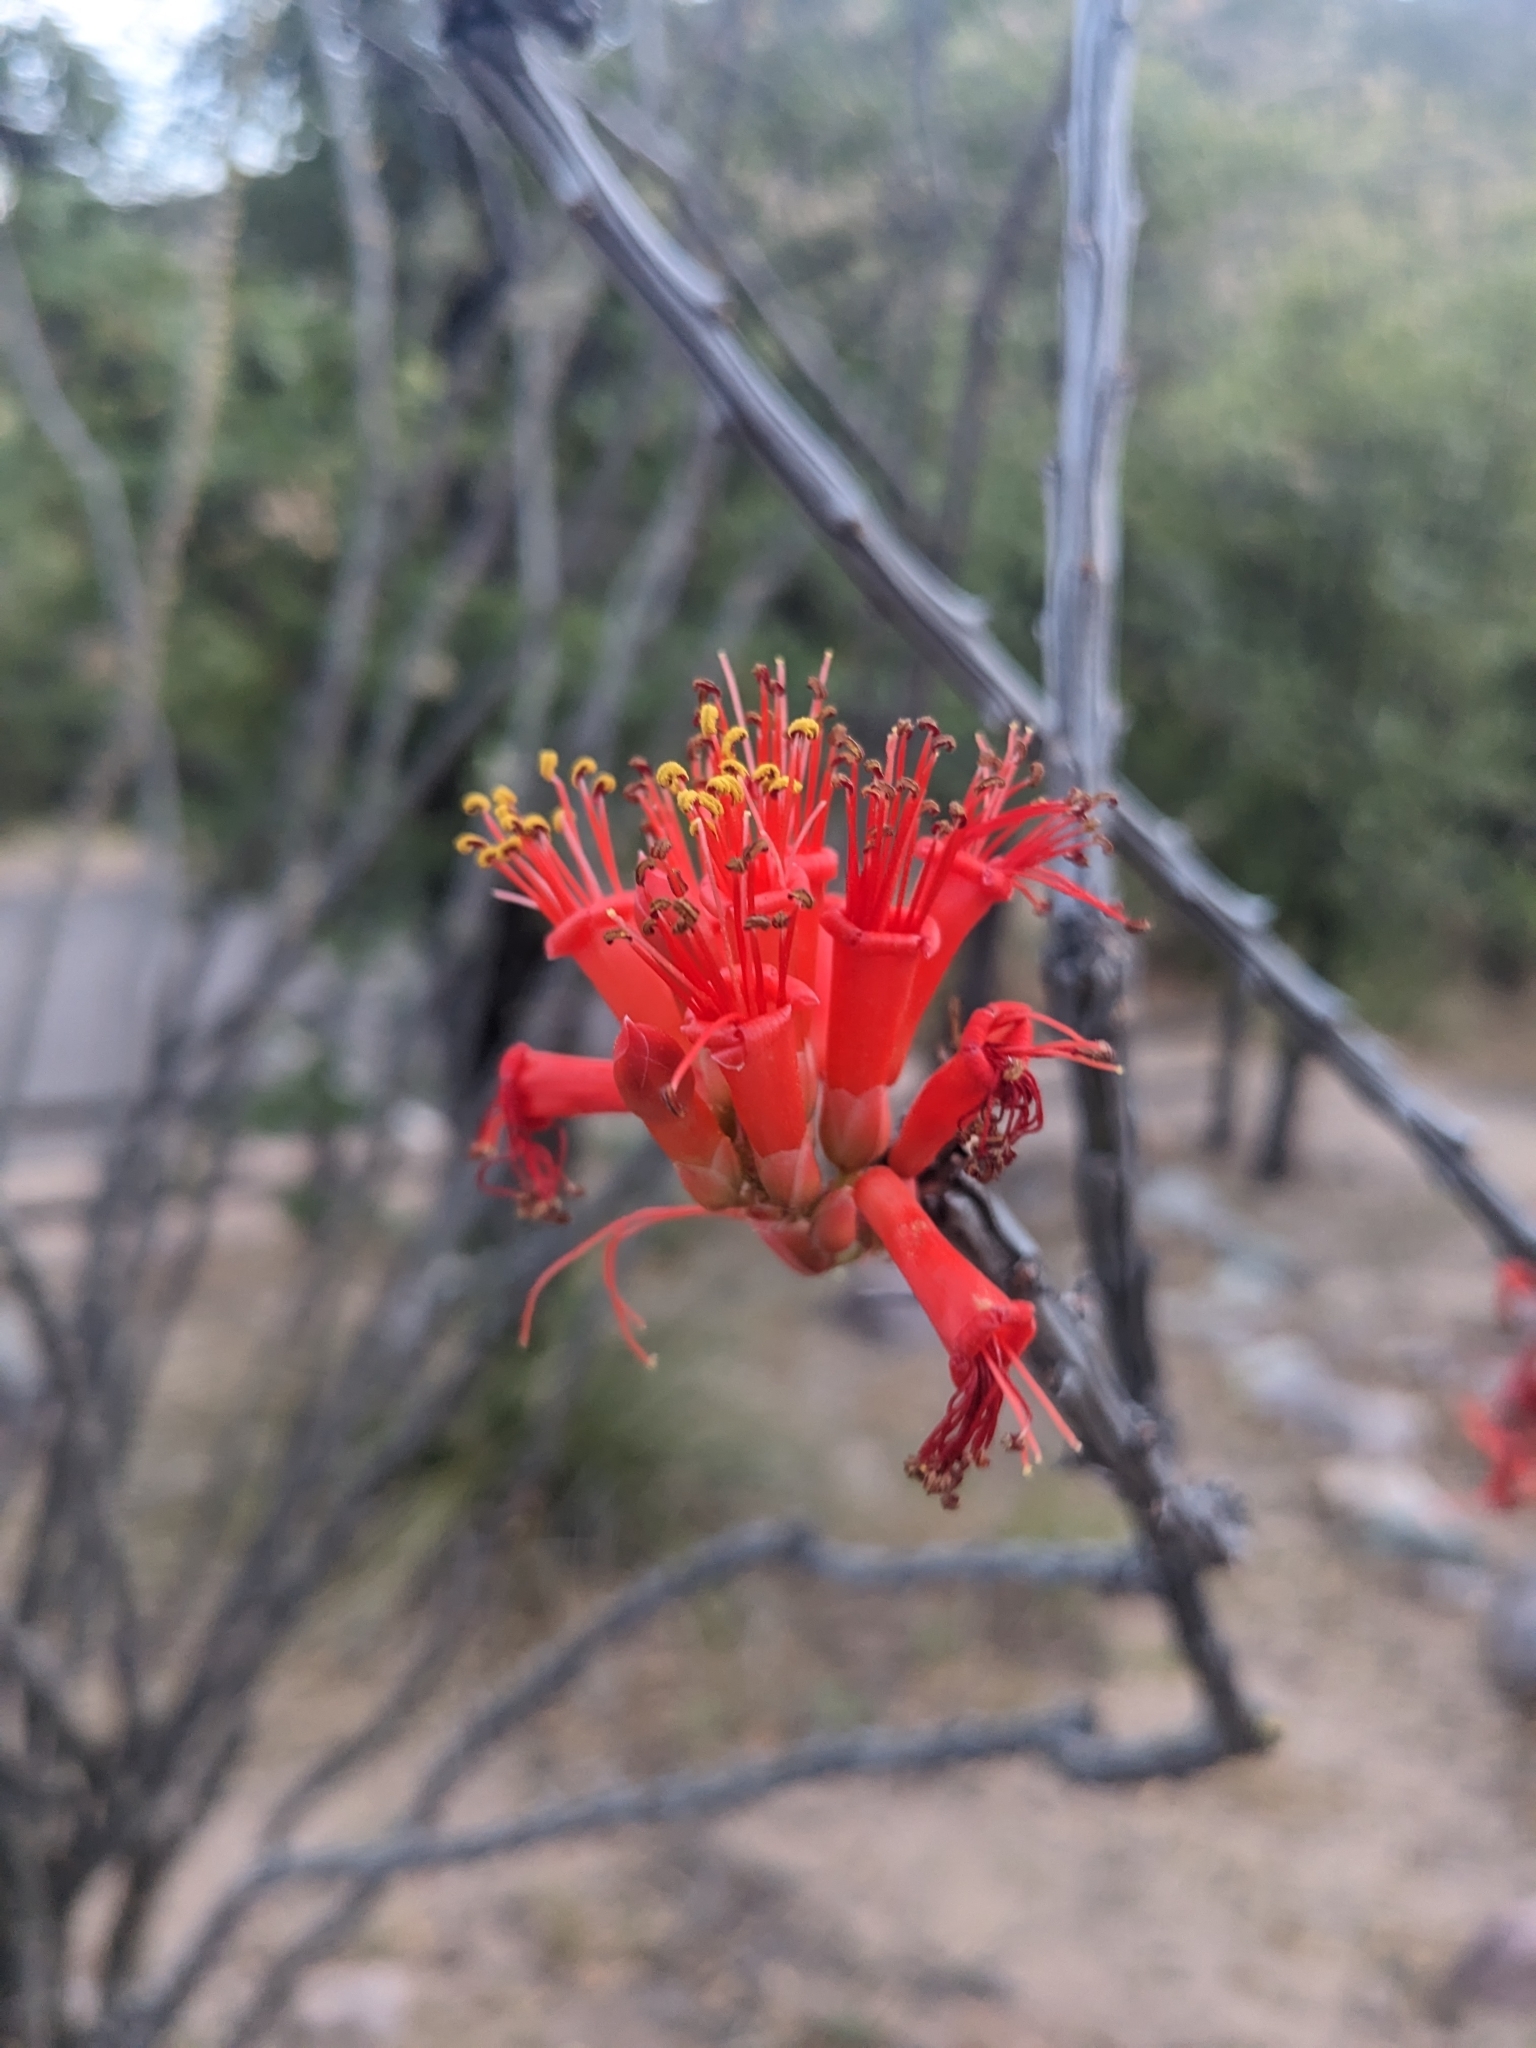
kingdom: Plantae
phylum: Tracheophyta
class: Magnoliopsida
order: Ericales
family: Fouquieriaceae
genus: Fouquieria
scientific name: Fouquieria splendens
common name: Vine-cactus
